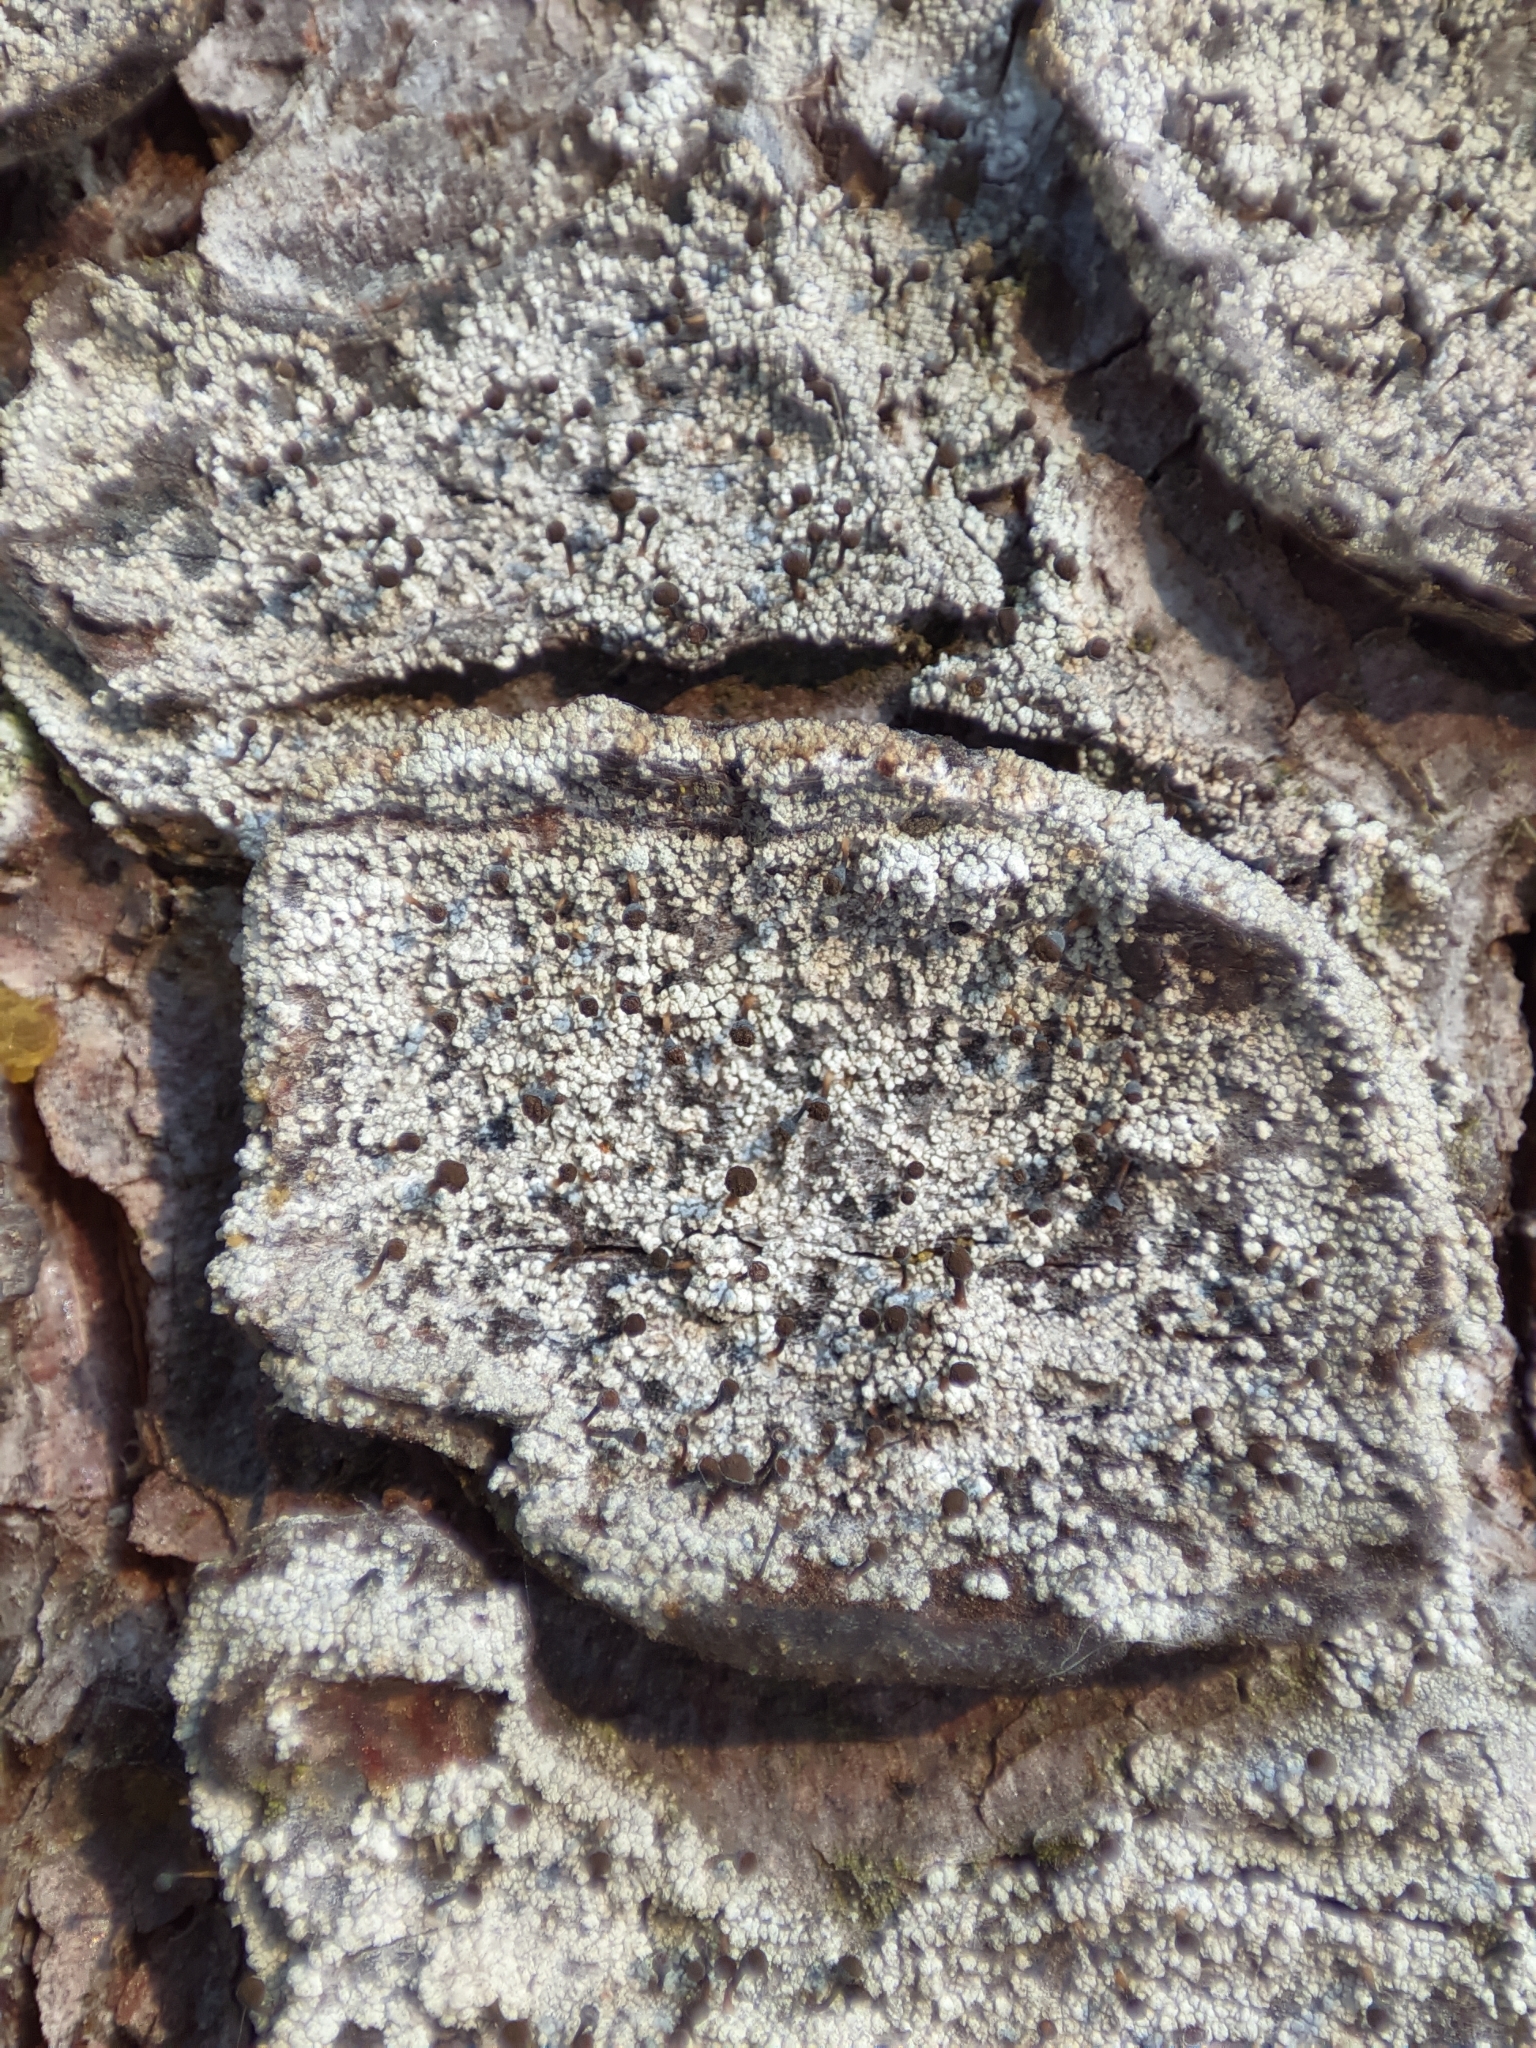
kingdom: Fungi
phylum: Ascomycota
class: Coniocybomycetes
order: Coniocybales
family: Coniocybaceae
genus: Chaenotheca
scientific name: Chaenotheca ferruginea
